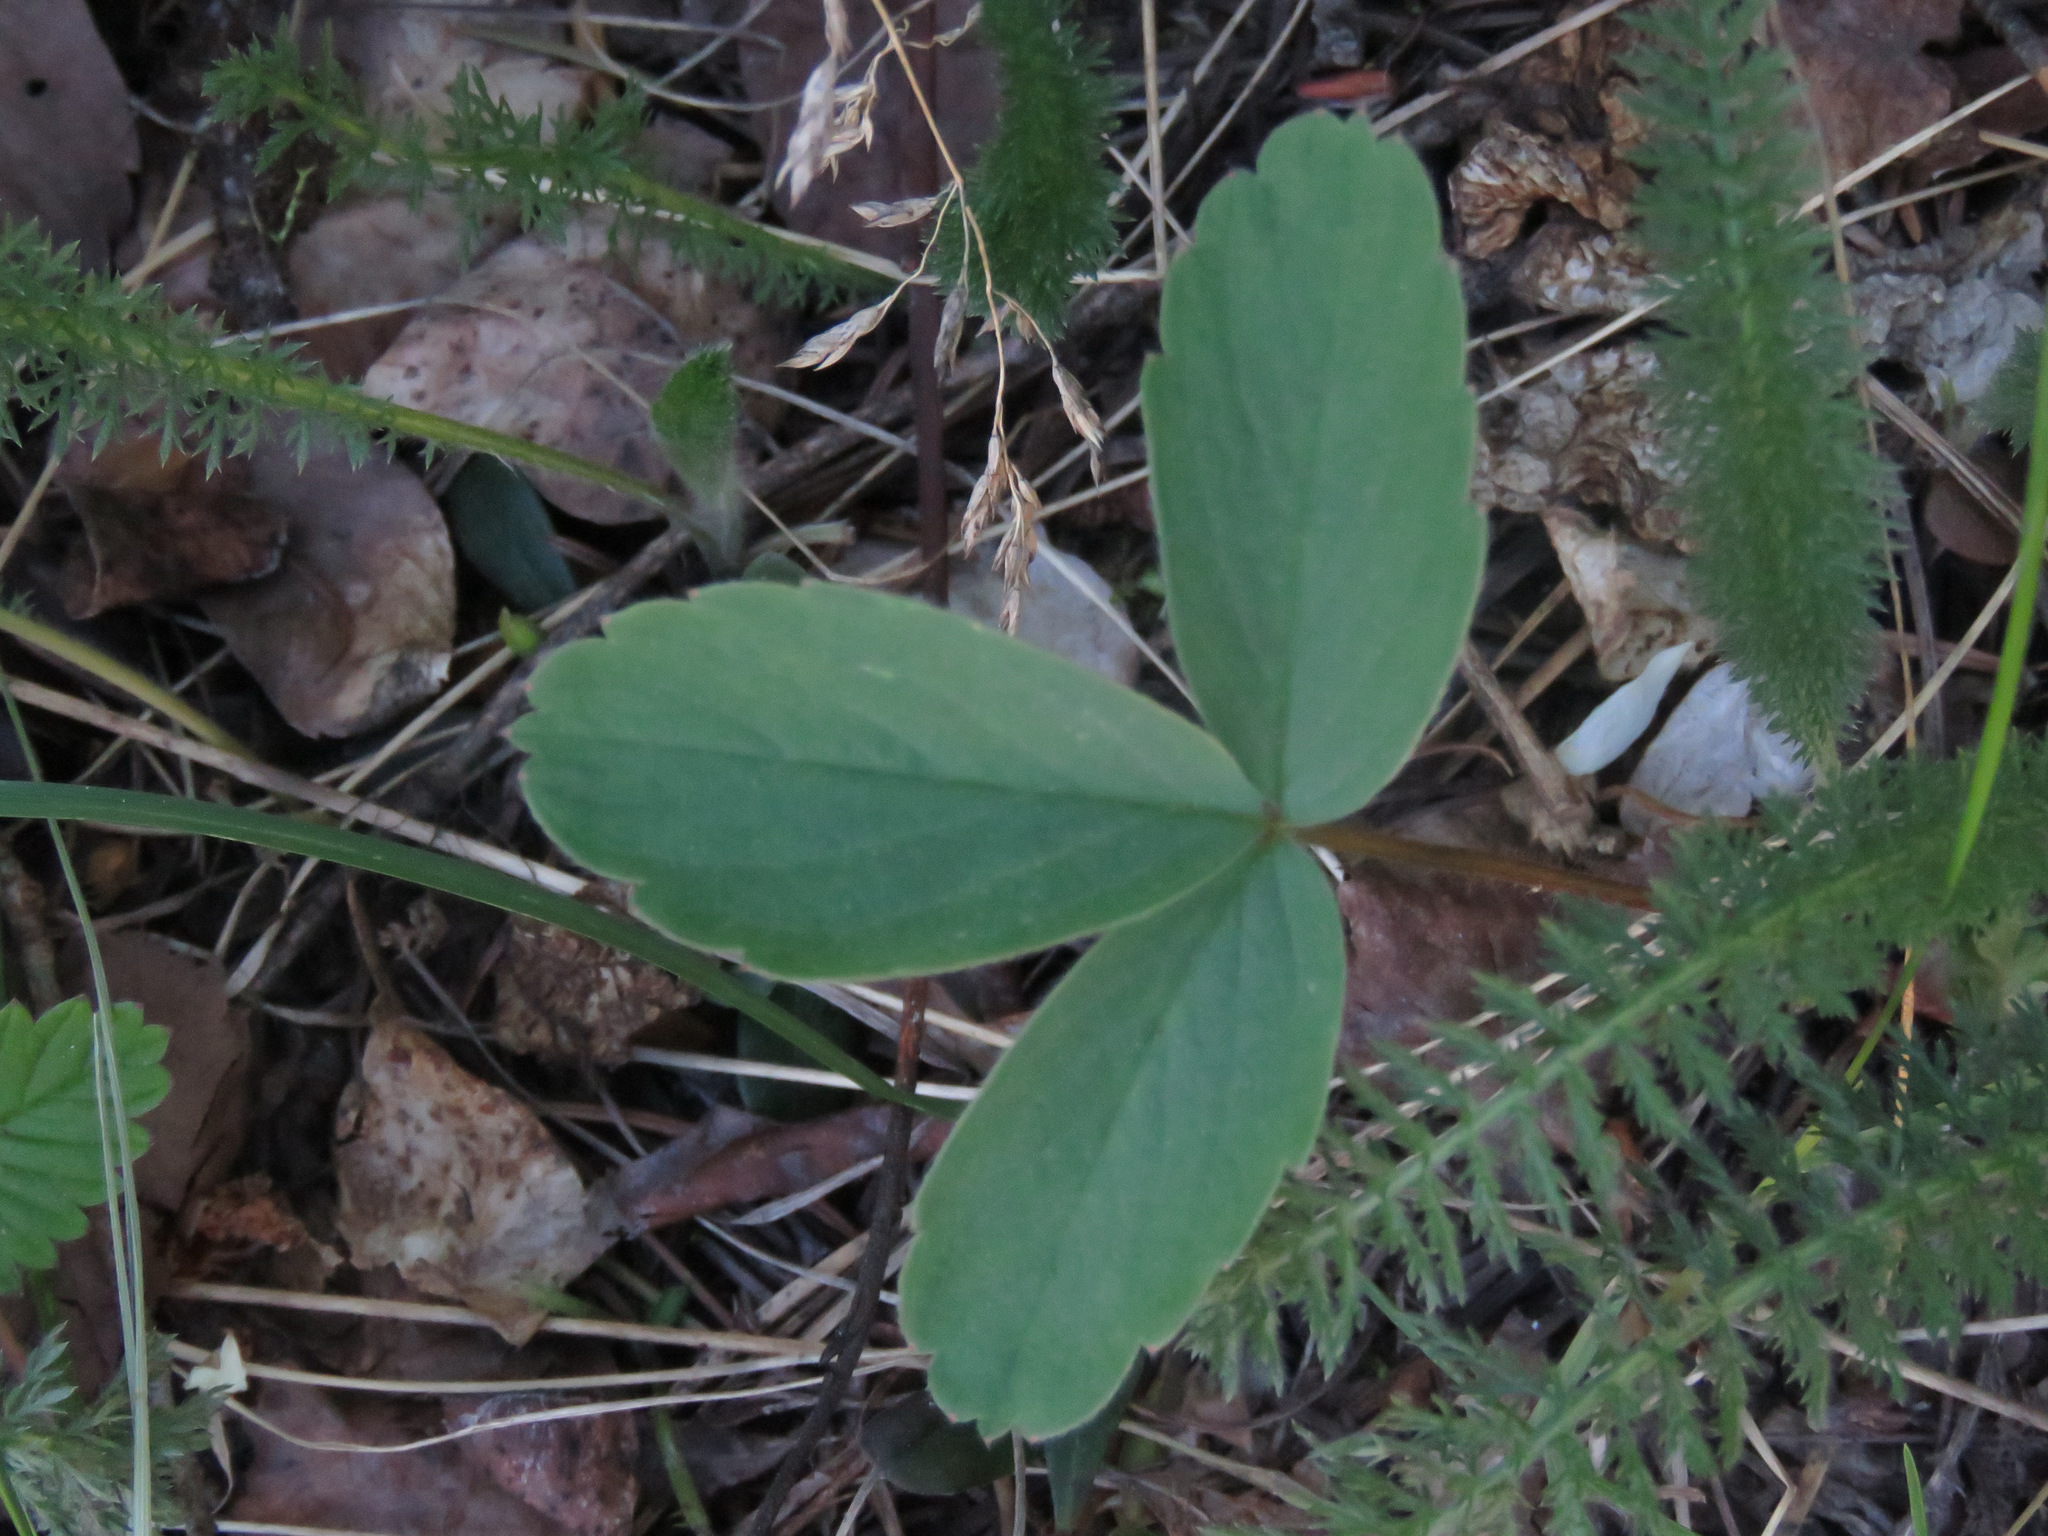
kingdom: Plantae
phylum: Tracheophyta
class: Magnoliopsida
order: Rosales
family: Rosaceae
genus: Fragaria
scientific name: Fragaria virginiana
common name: Thickleaved wild strawberry
